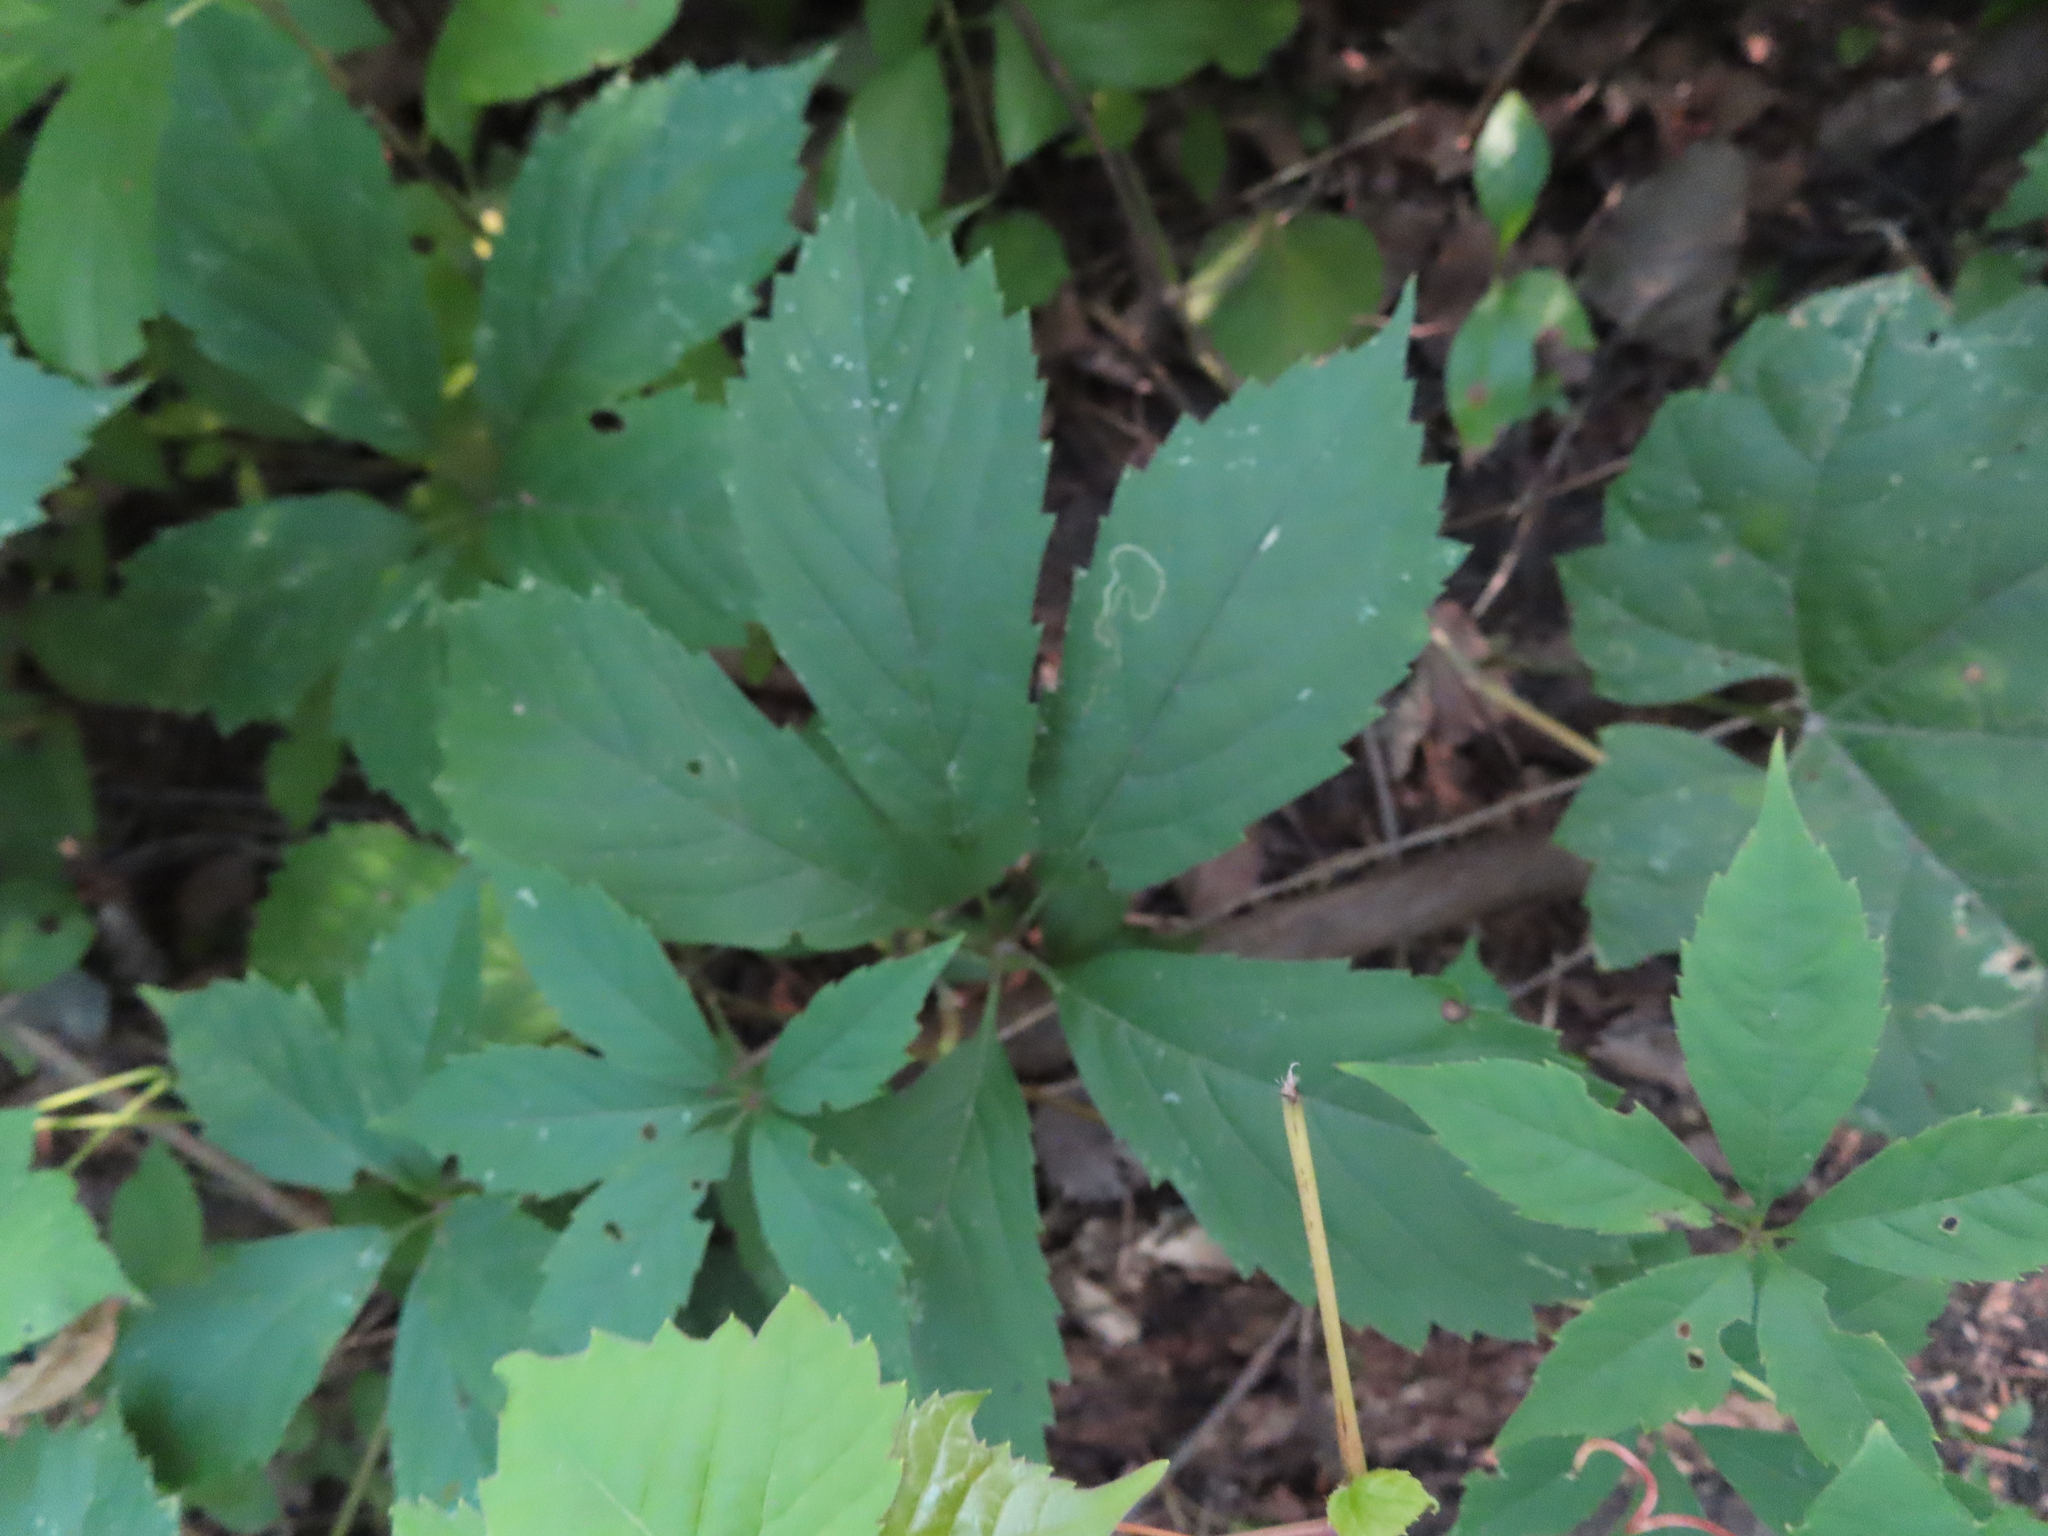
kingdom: Animalia
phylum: Arthropoda
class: Insecta
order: Lepidoptera
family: Gracillariidae
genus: Phyllocnistis
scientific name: Phyllocnistis vitifoliella
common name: Grape leaf-miner moth
